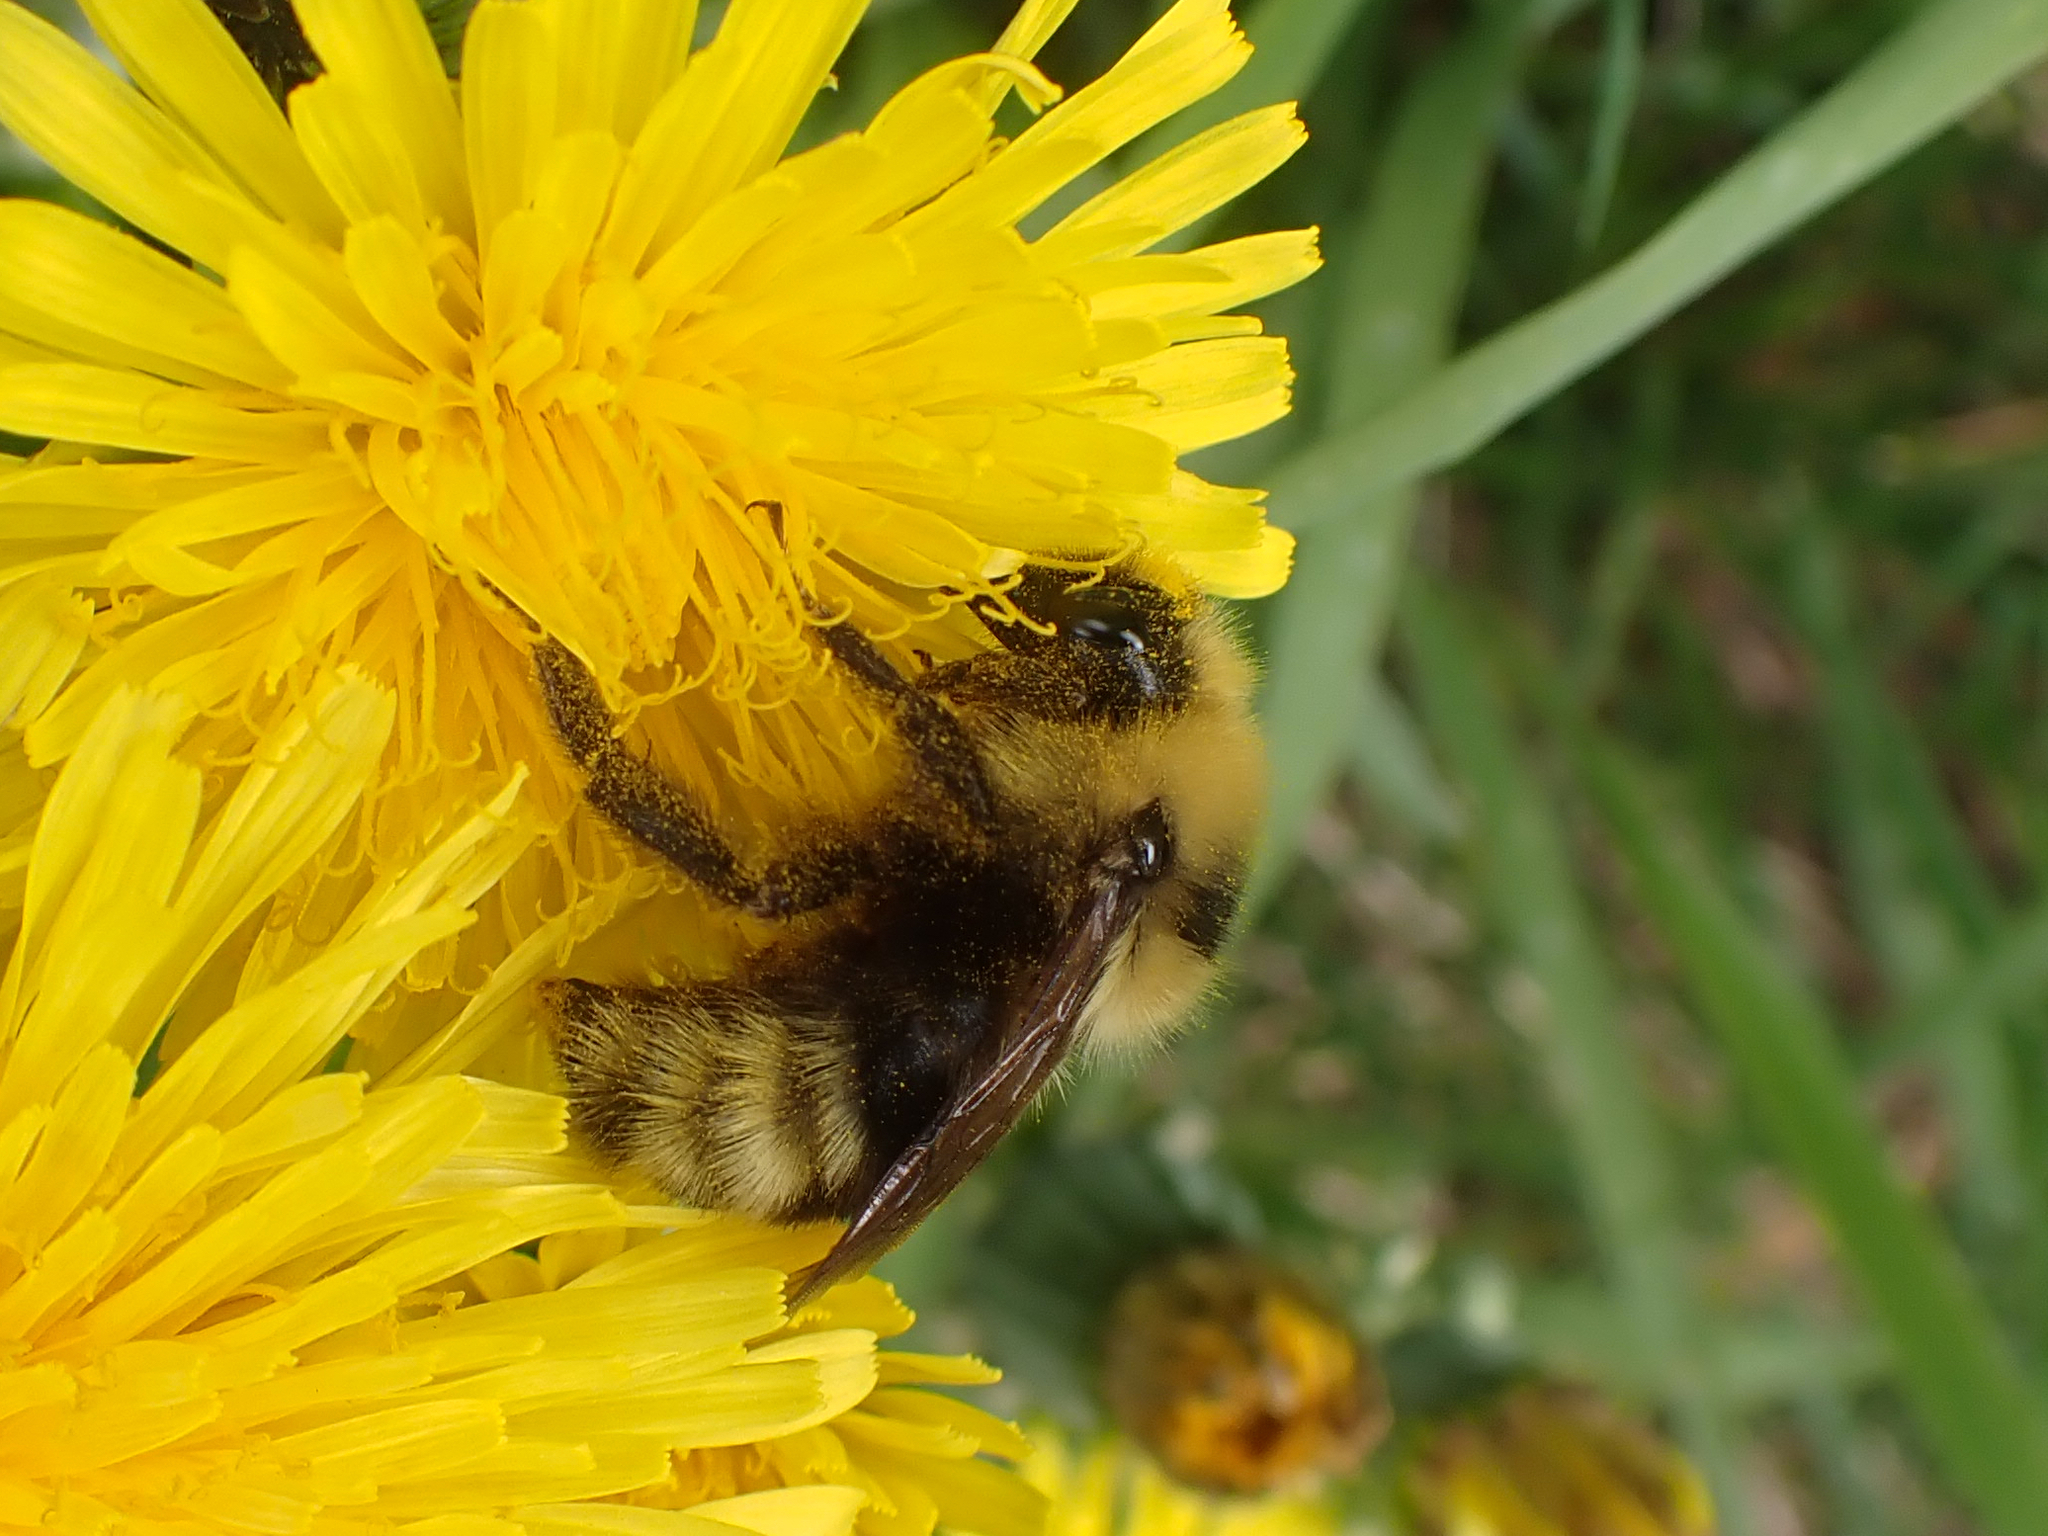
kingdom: Animalia
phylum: Arthropoda
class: Insecta
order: Hymenoptera
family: Apidae
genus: Bombus
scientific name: Bombus insularis
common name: Indiscriminate cuckoo bumble bee
